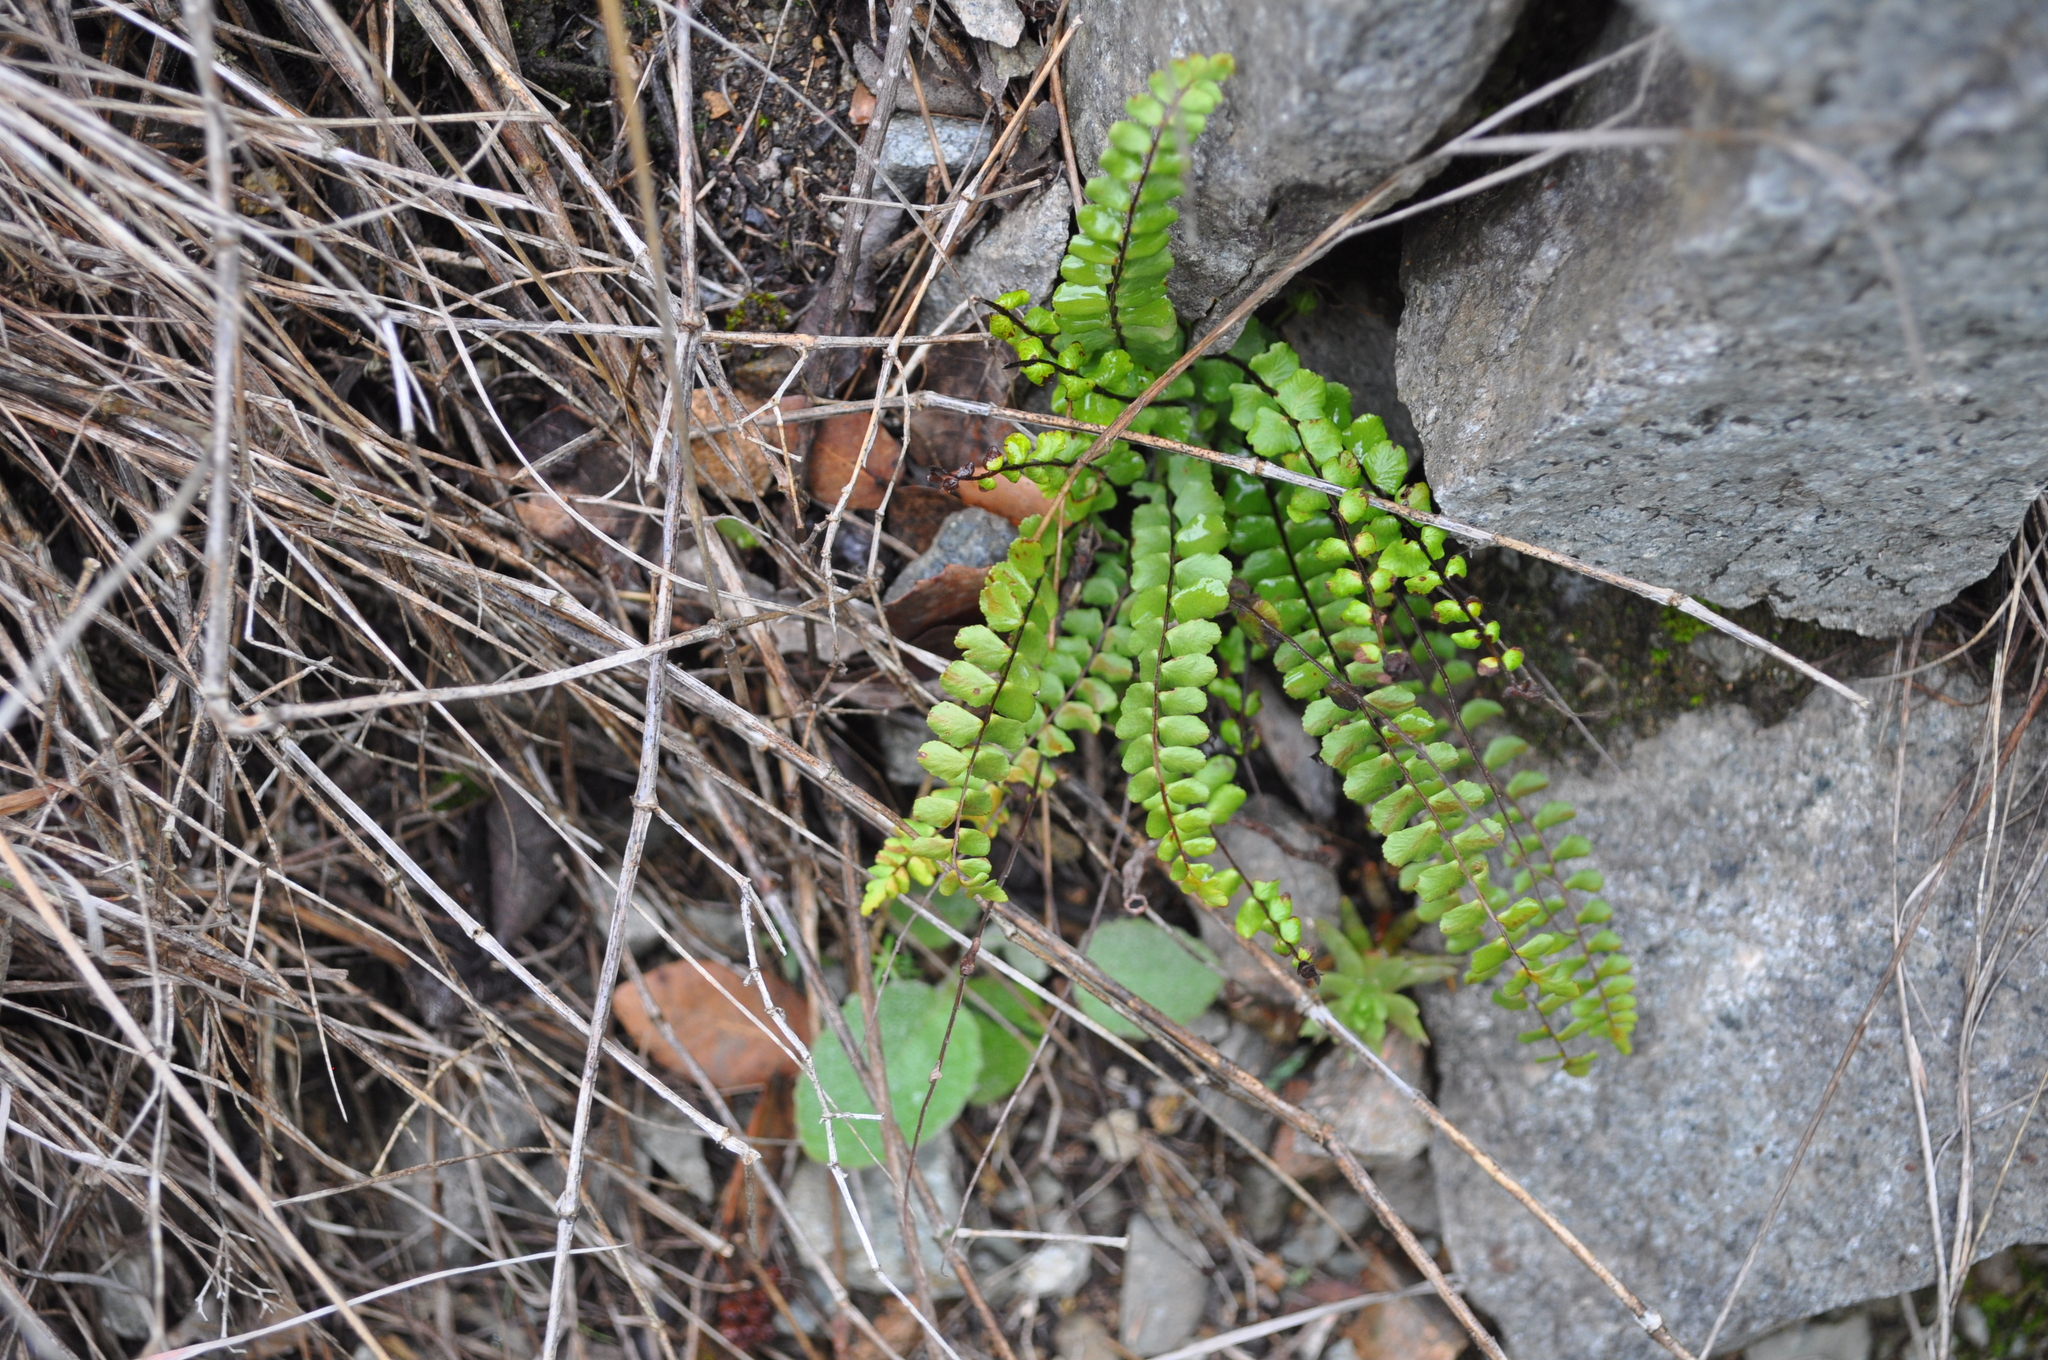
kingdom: Plantae
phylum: Tracheophyta
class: Polypodiopsida
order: Polypodiales
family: Aspleniaceae
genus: Asplenium
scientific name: Asplenium trichomanes
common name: Maidenhair spleenwort
